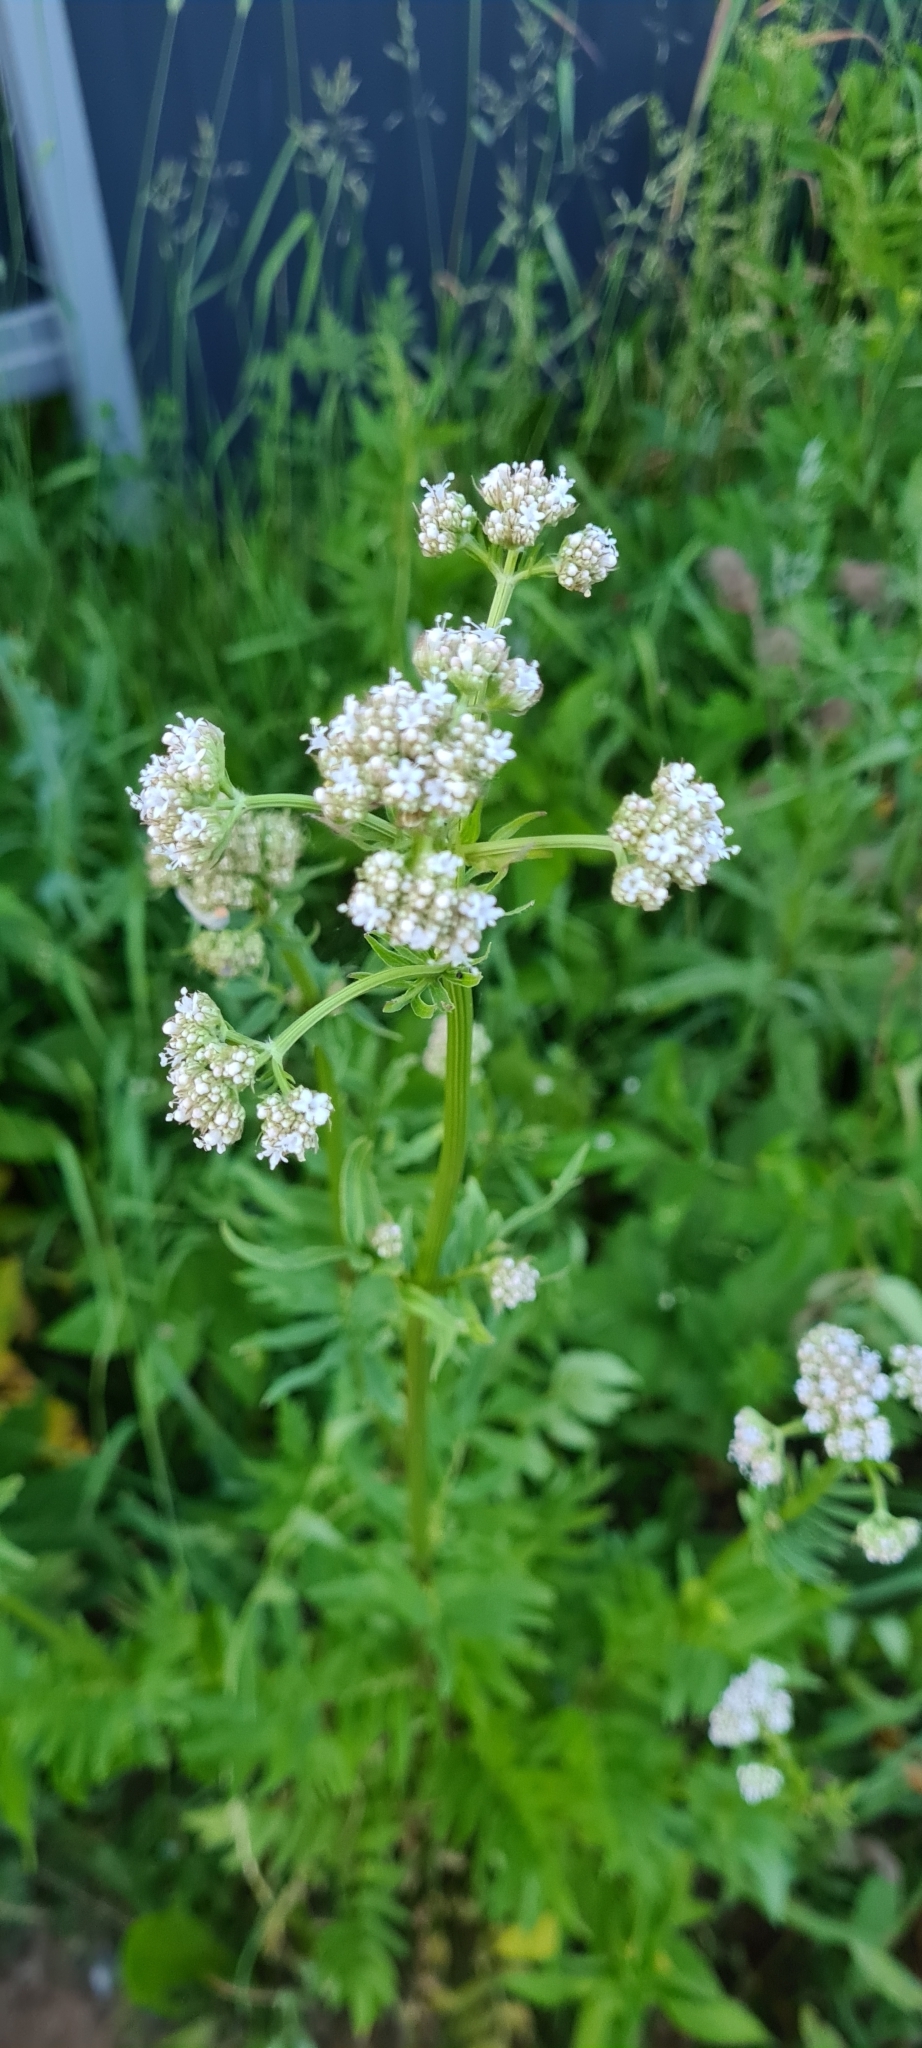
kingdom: Plantae
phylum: Tracheophyta
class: Magnoliopsida
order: Dipsacales
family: Caprifoliaceae
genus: Valeriana
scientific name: Valeriana officinalis
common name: Common valerian
